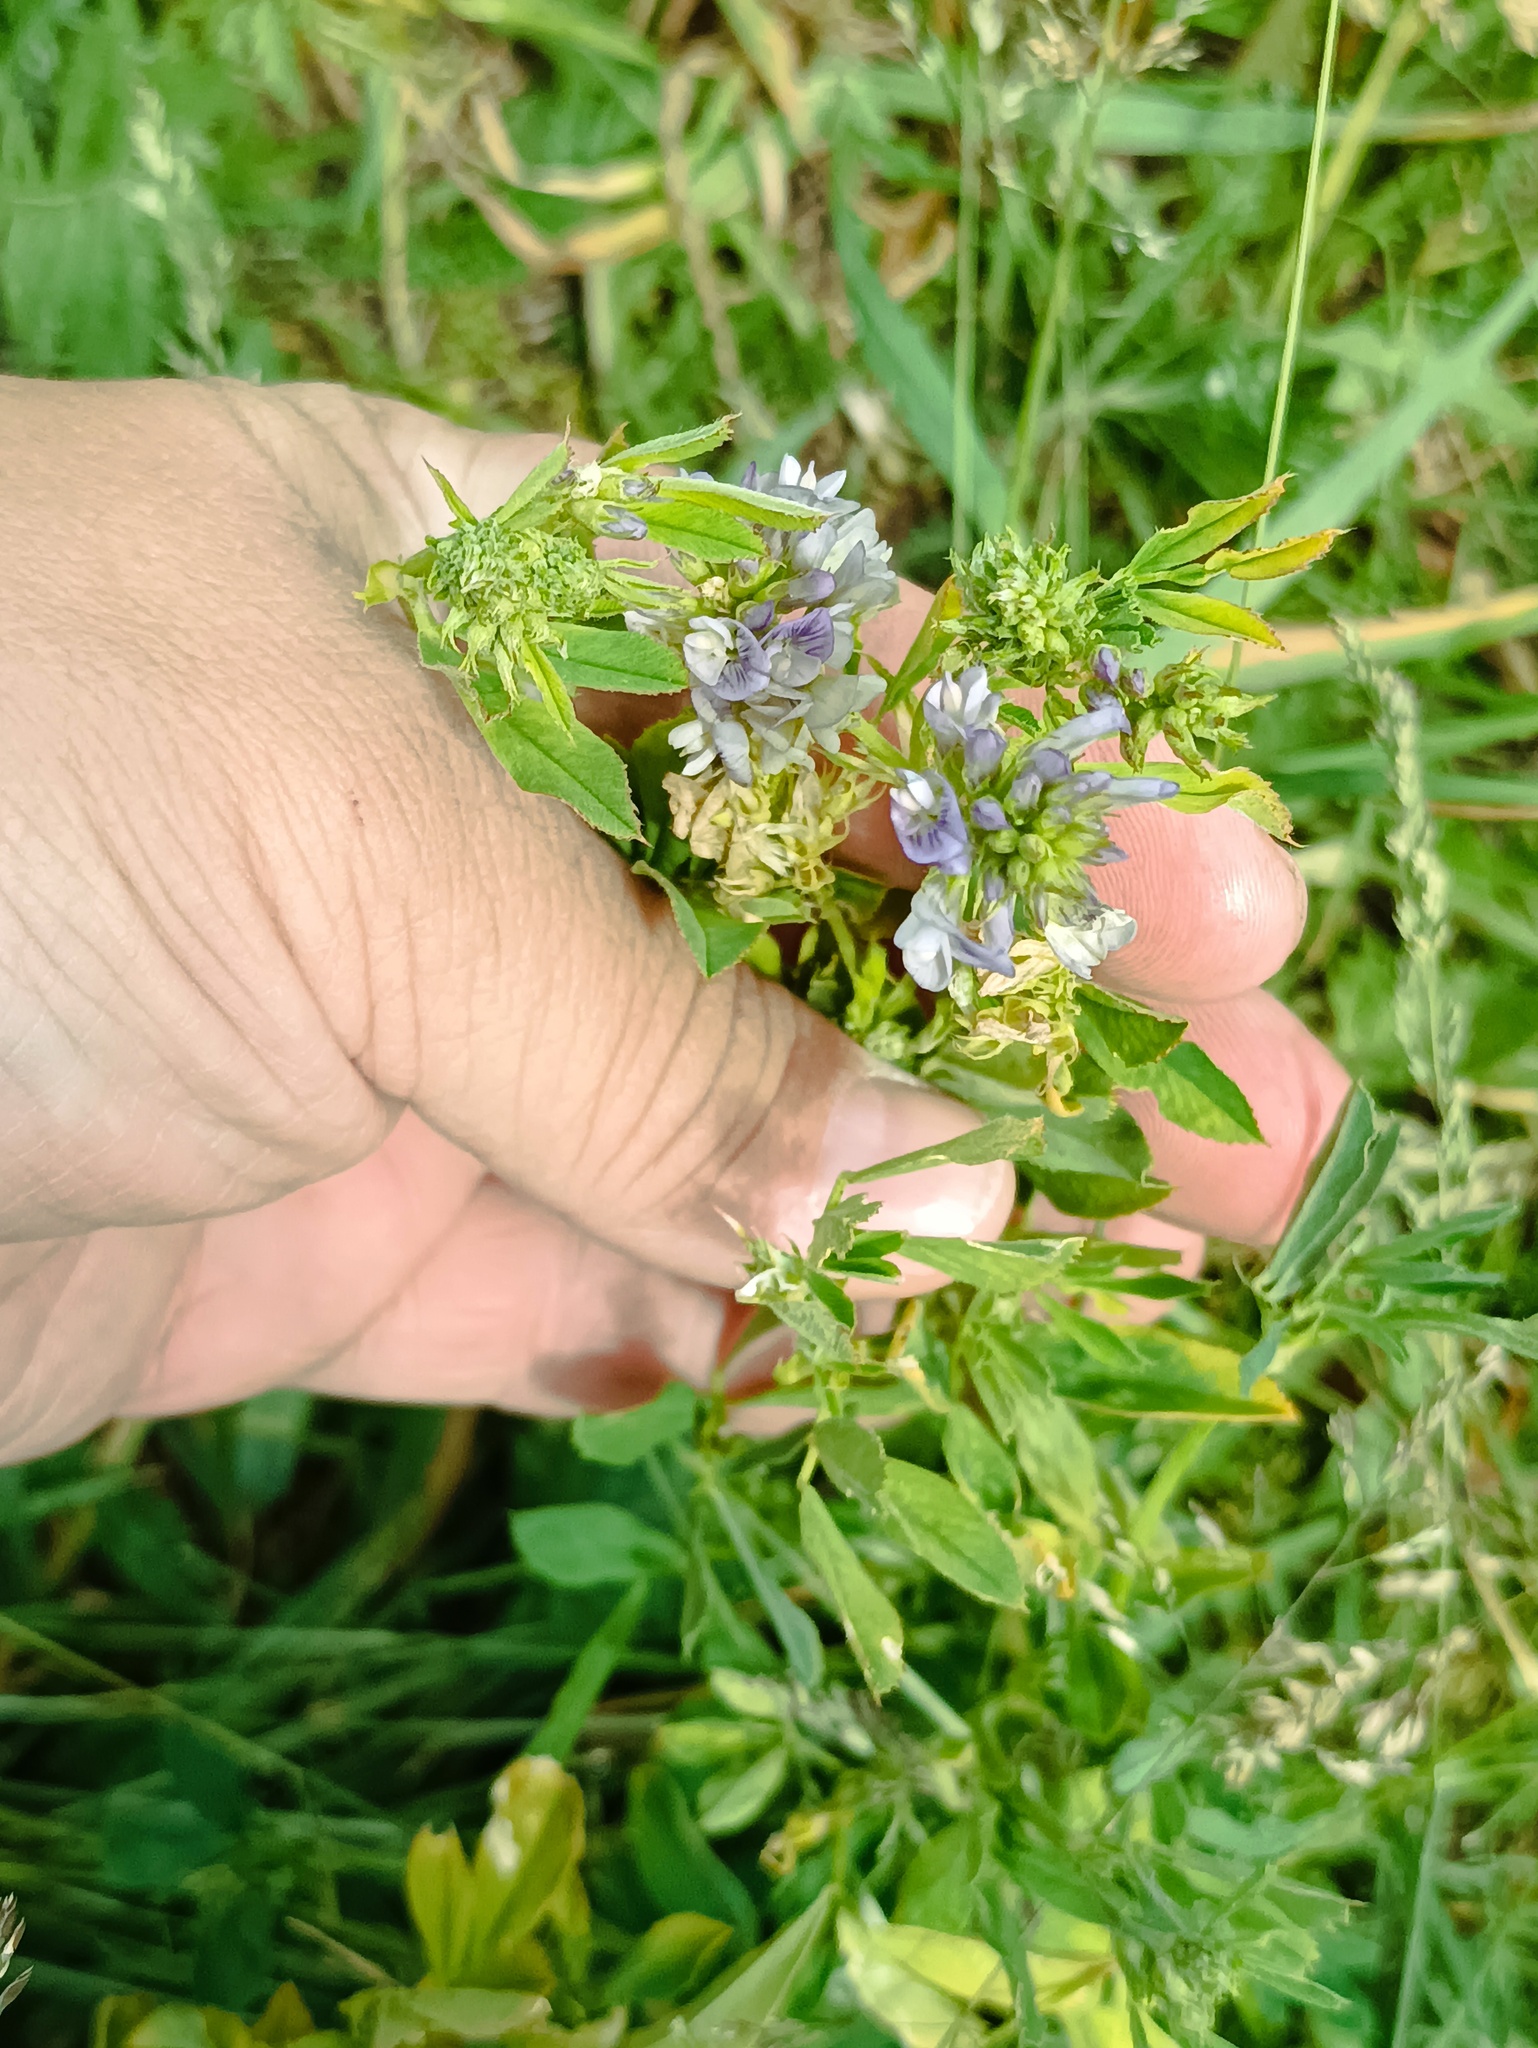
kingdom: Plantae
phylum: Tracheophyta
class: Magnoliopsida
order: Fabales
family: Fabaceae
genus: Medicago
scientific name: Medicago varia
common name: Sand lucerne
